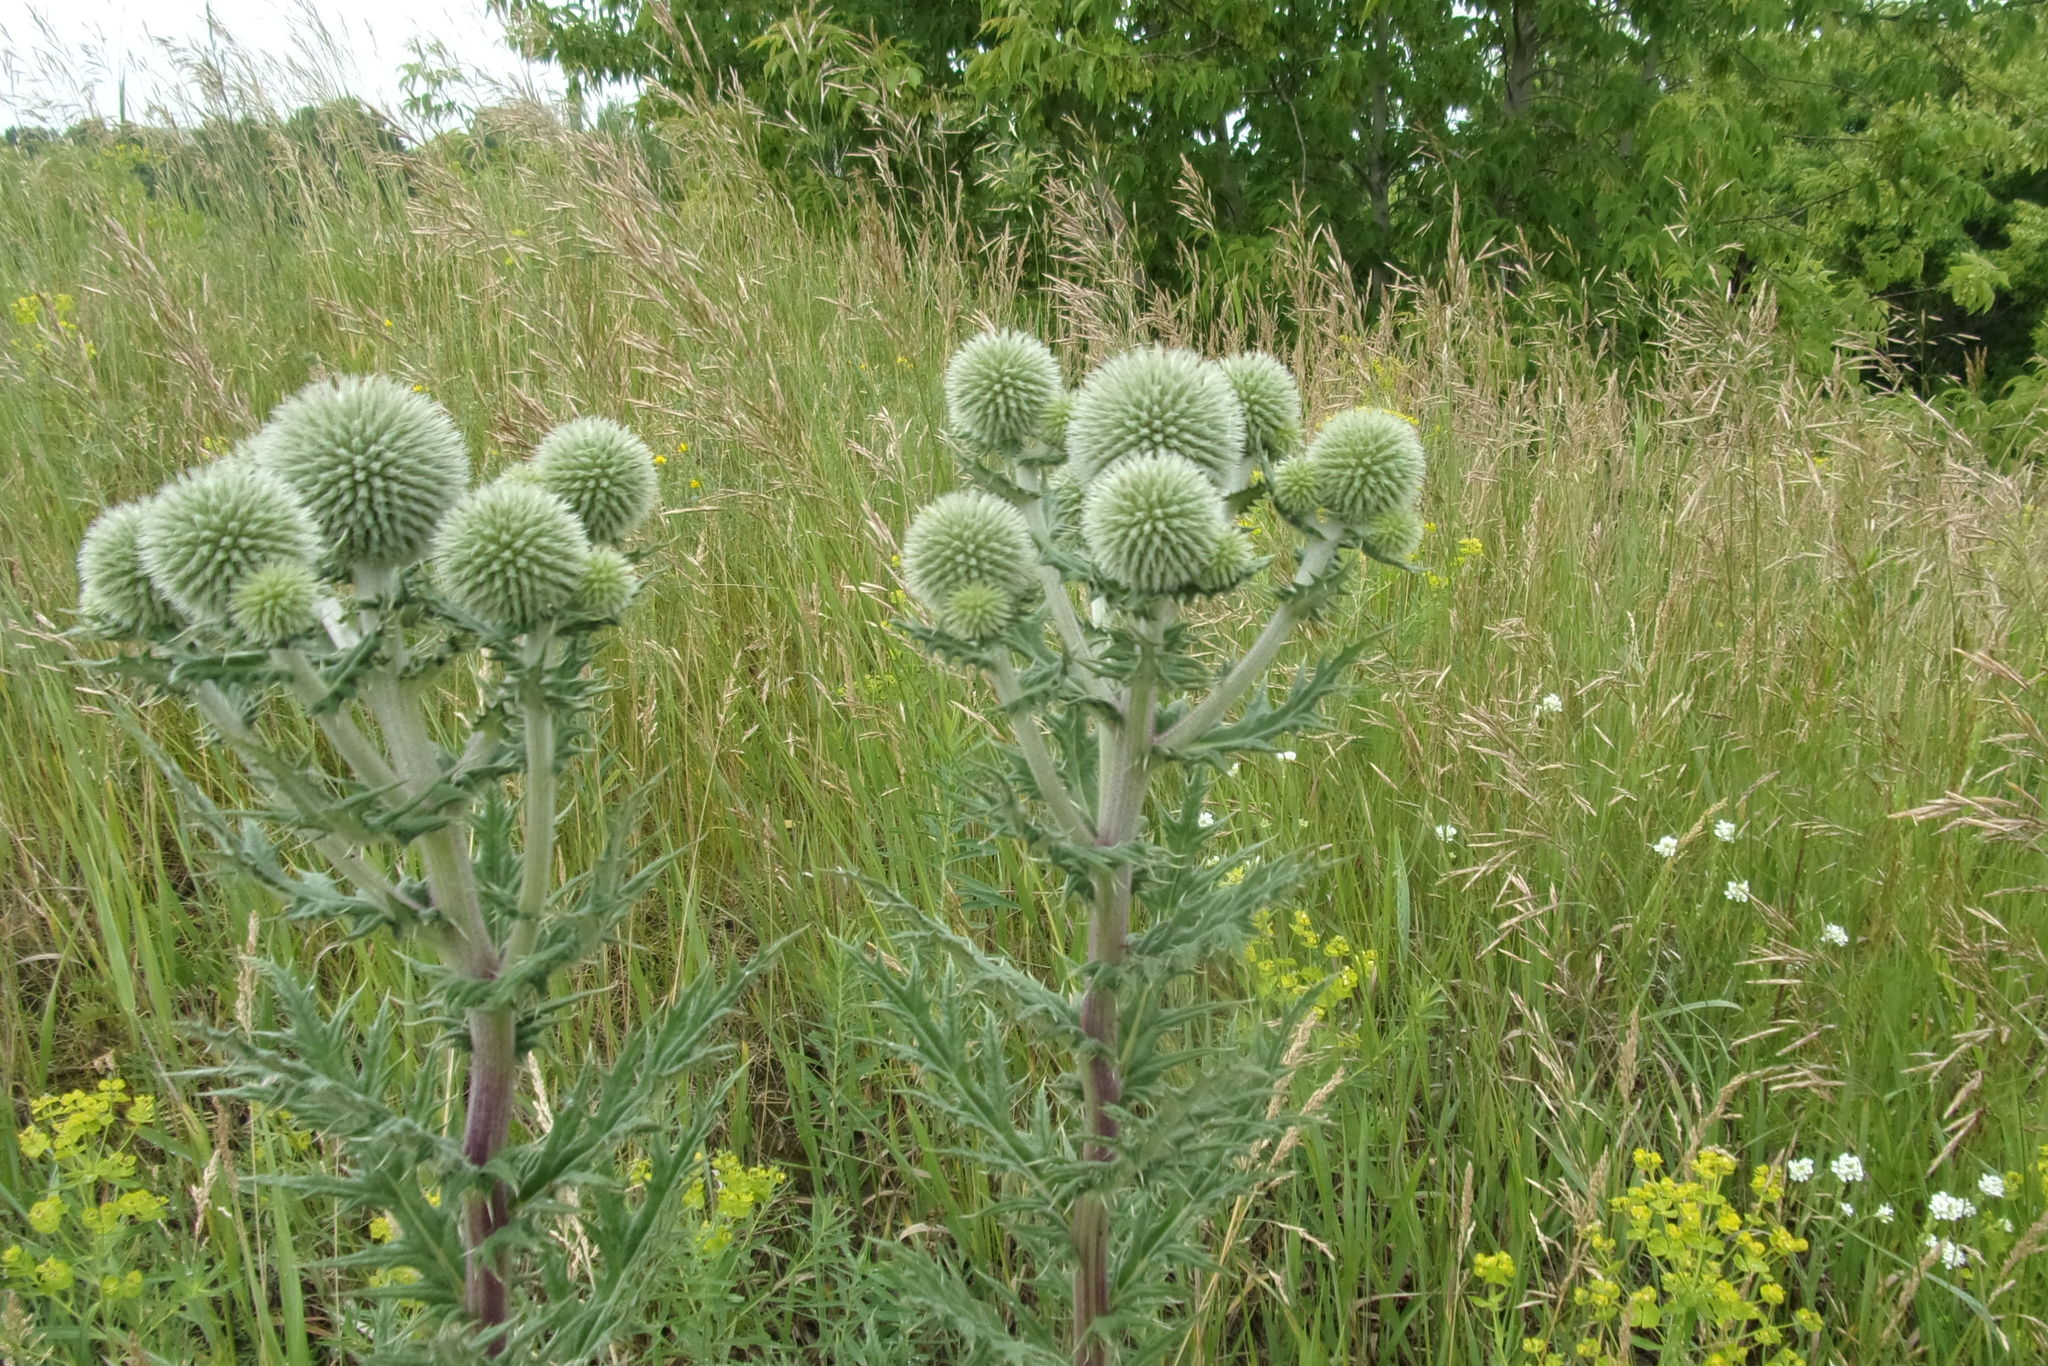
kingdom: Plantae
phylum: Tracheophyta
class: Magnoliopsida
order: Asterales
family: Asteraceae
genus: Echinops
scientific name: Echinops sphaerocephalus
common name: Glandular globe-thistle
